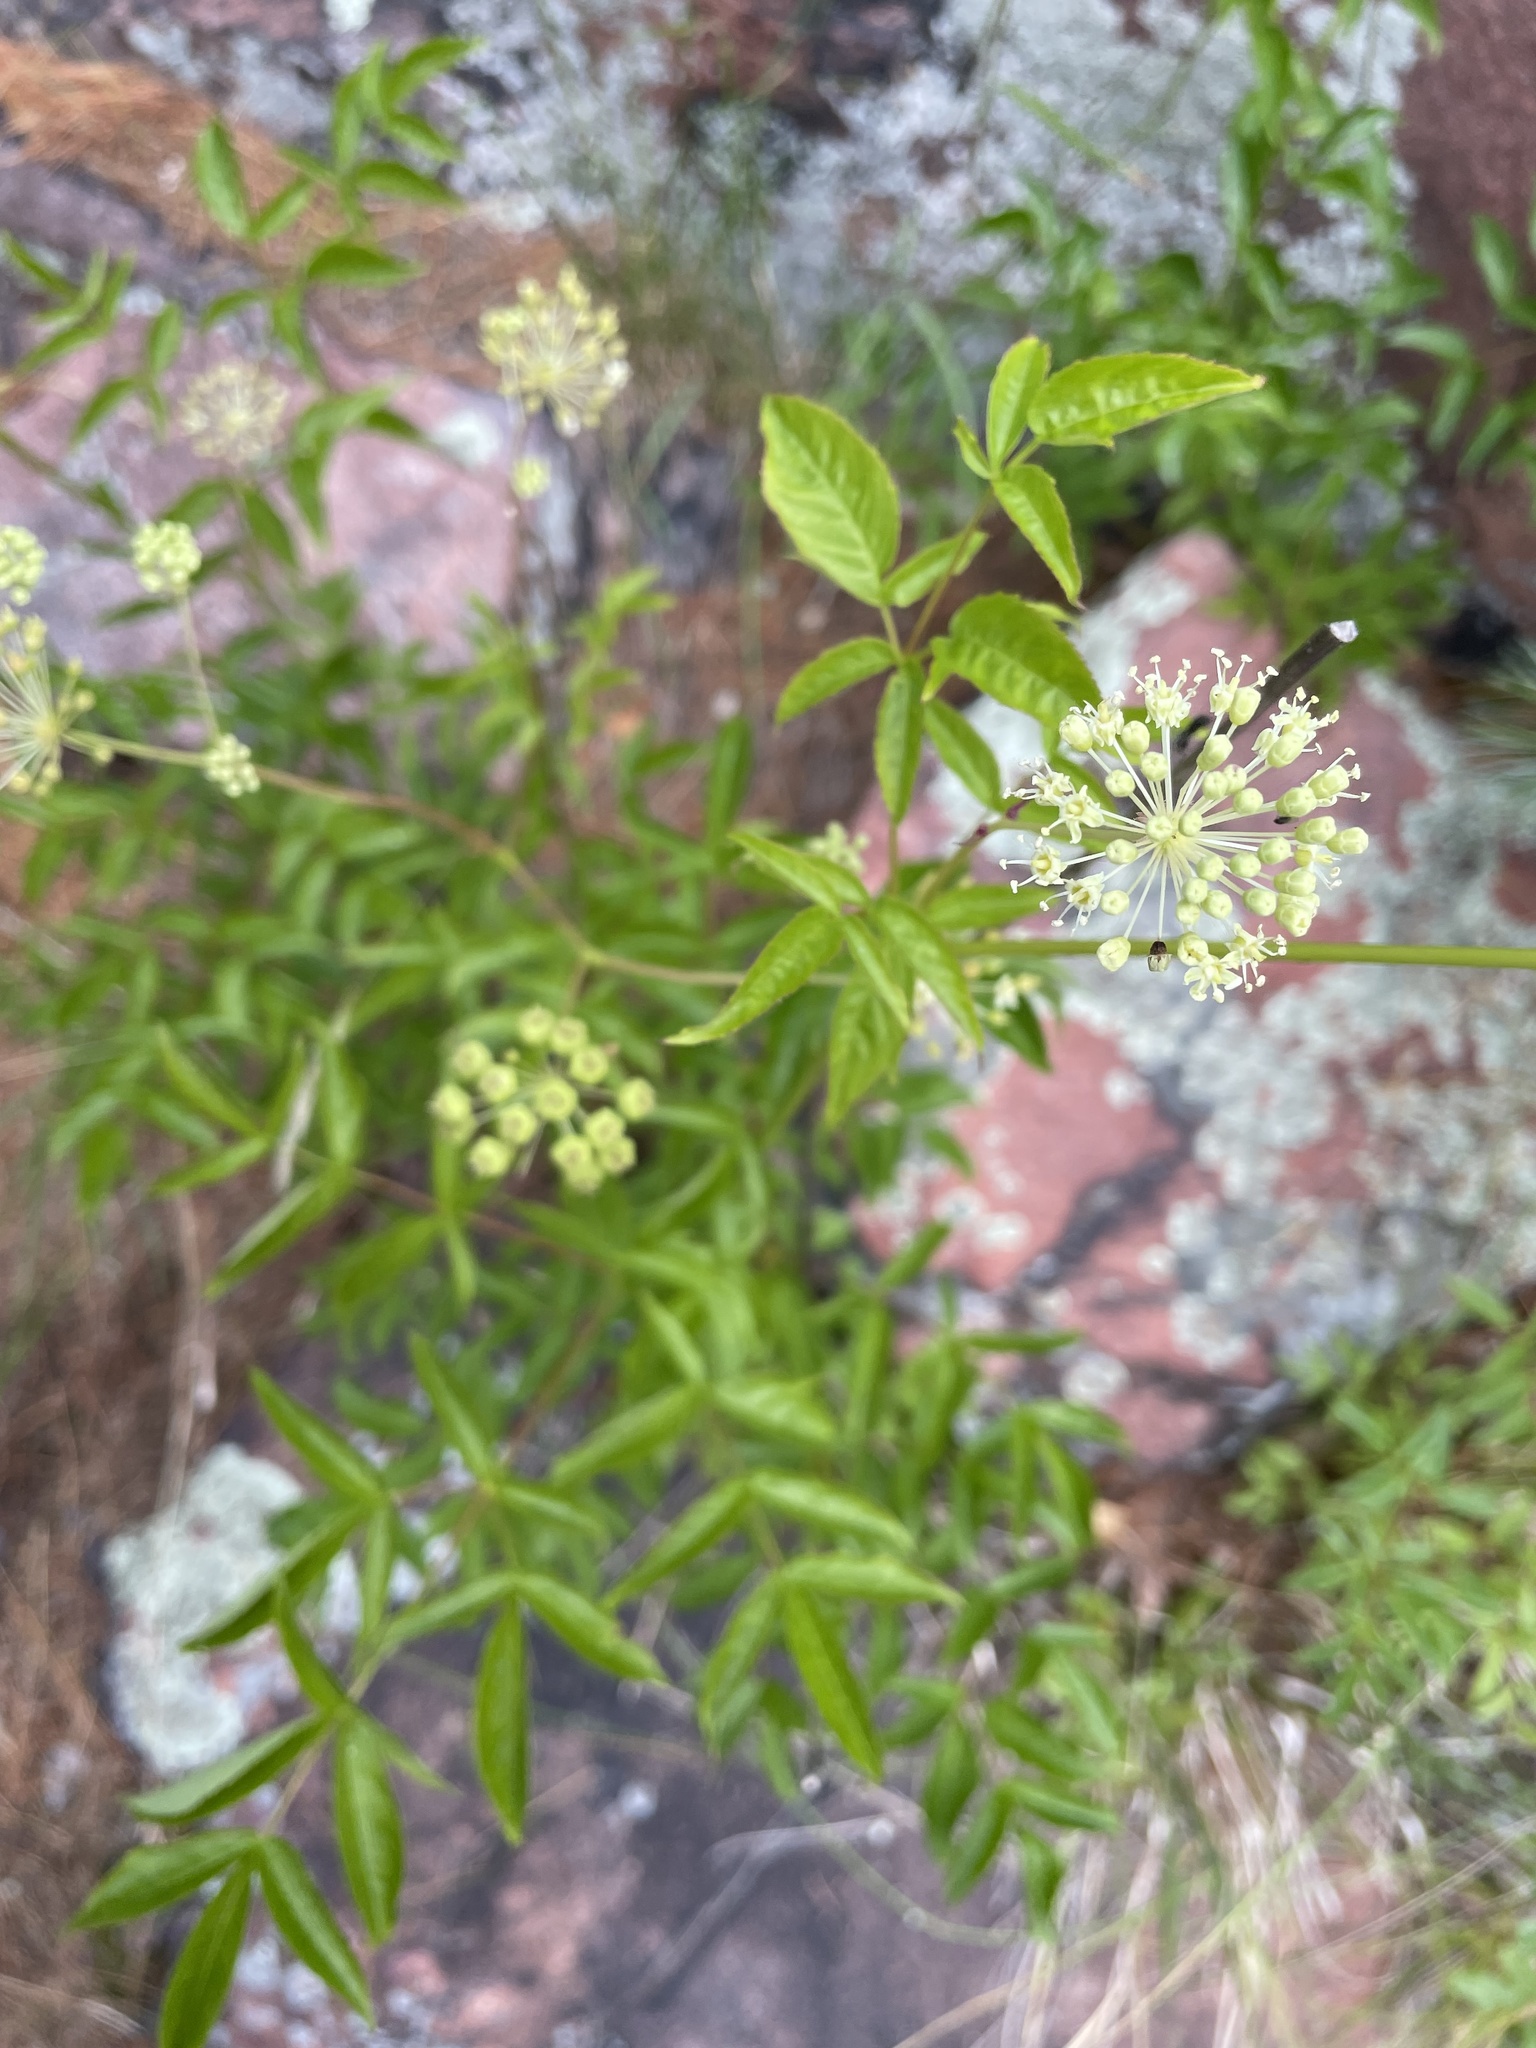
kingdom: Plantae
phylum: Tracheophyta
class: Magnoliopsida
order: Apiales
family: Araliaceae
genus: Aralia
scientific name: Aralia hispida
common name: Bristly sarsaparilla
